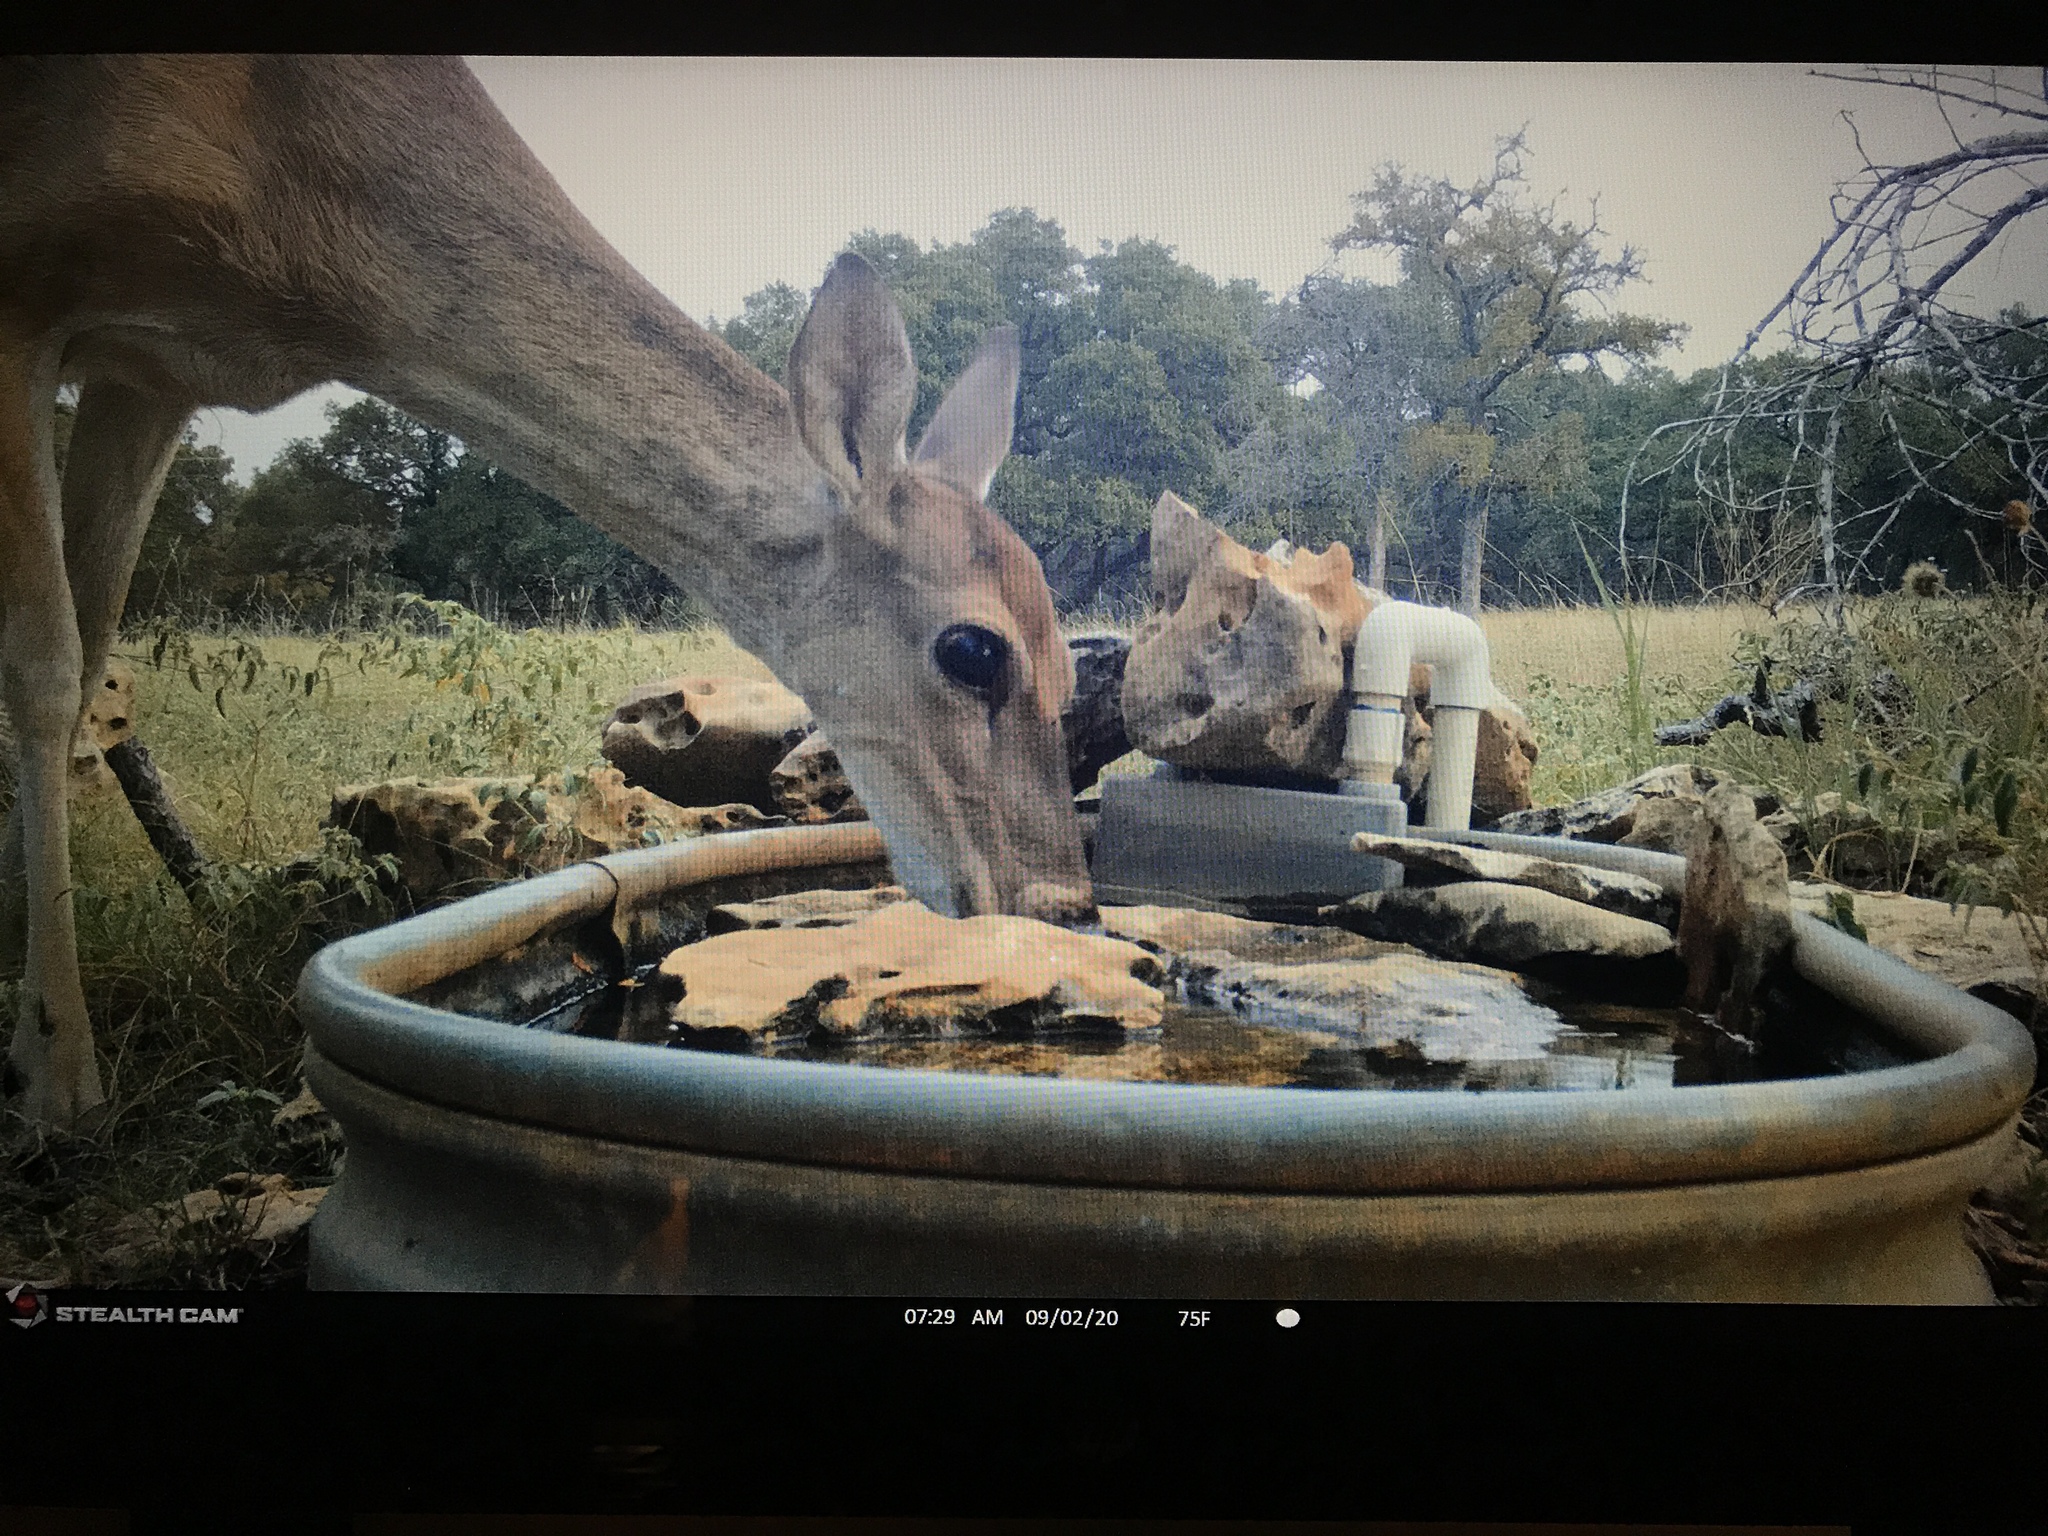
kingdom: Animalia
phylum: Chordata
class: Mammalia
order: Artiodactyla
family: Cervidae
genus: Odocoileus
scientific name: Odocoileus virginianus
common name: White-tailed deer
